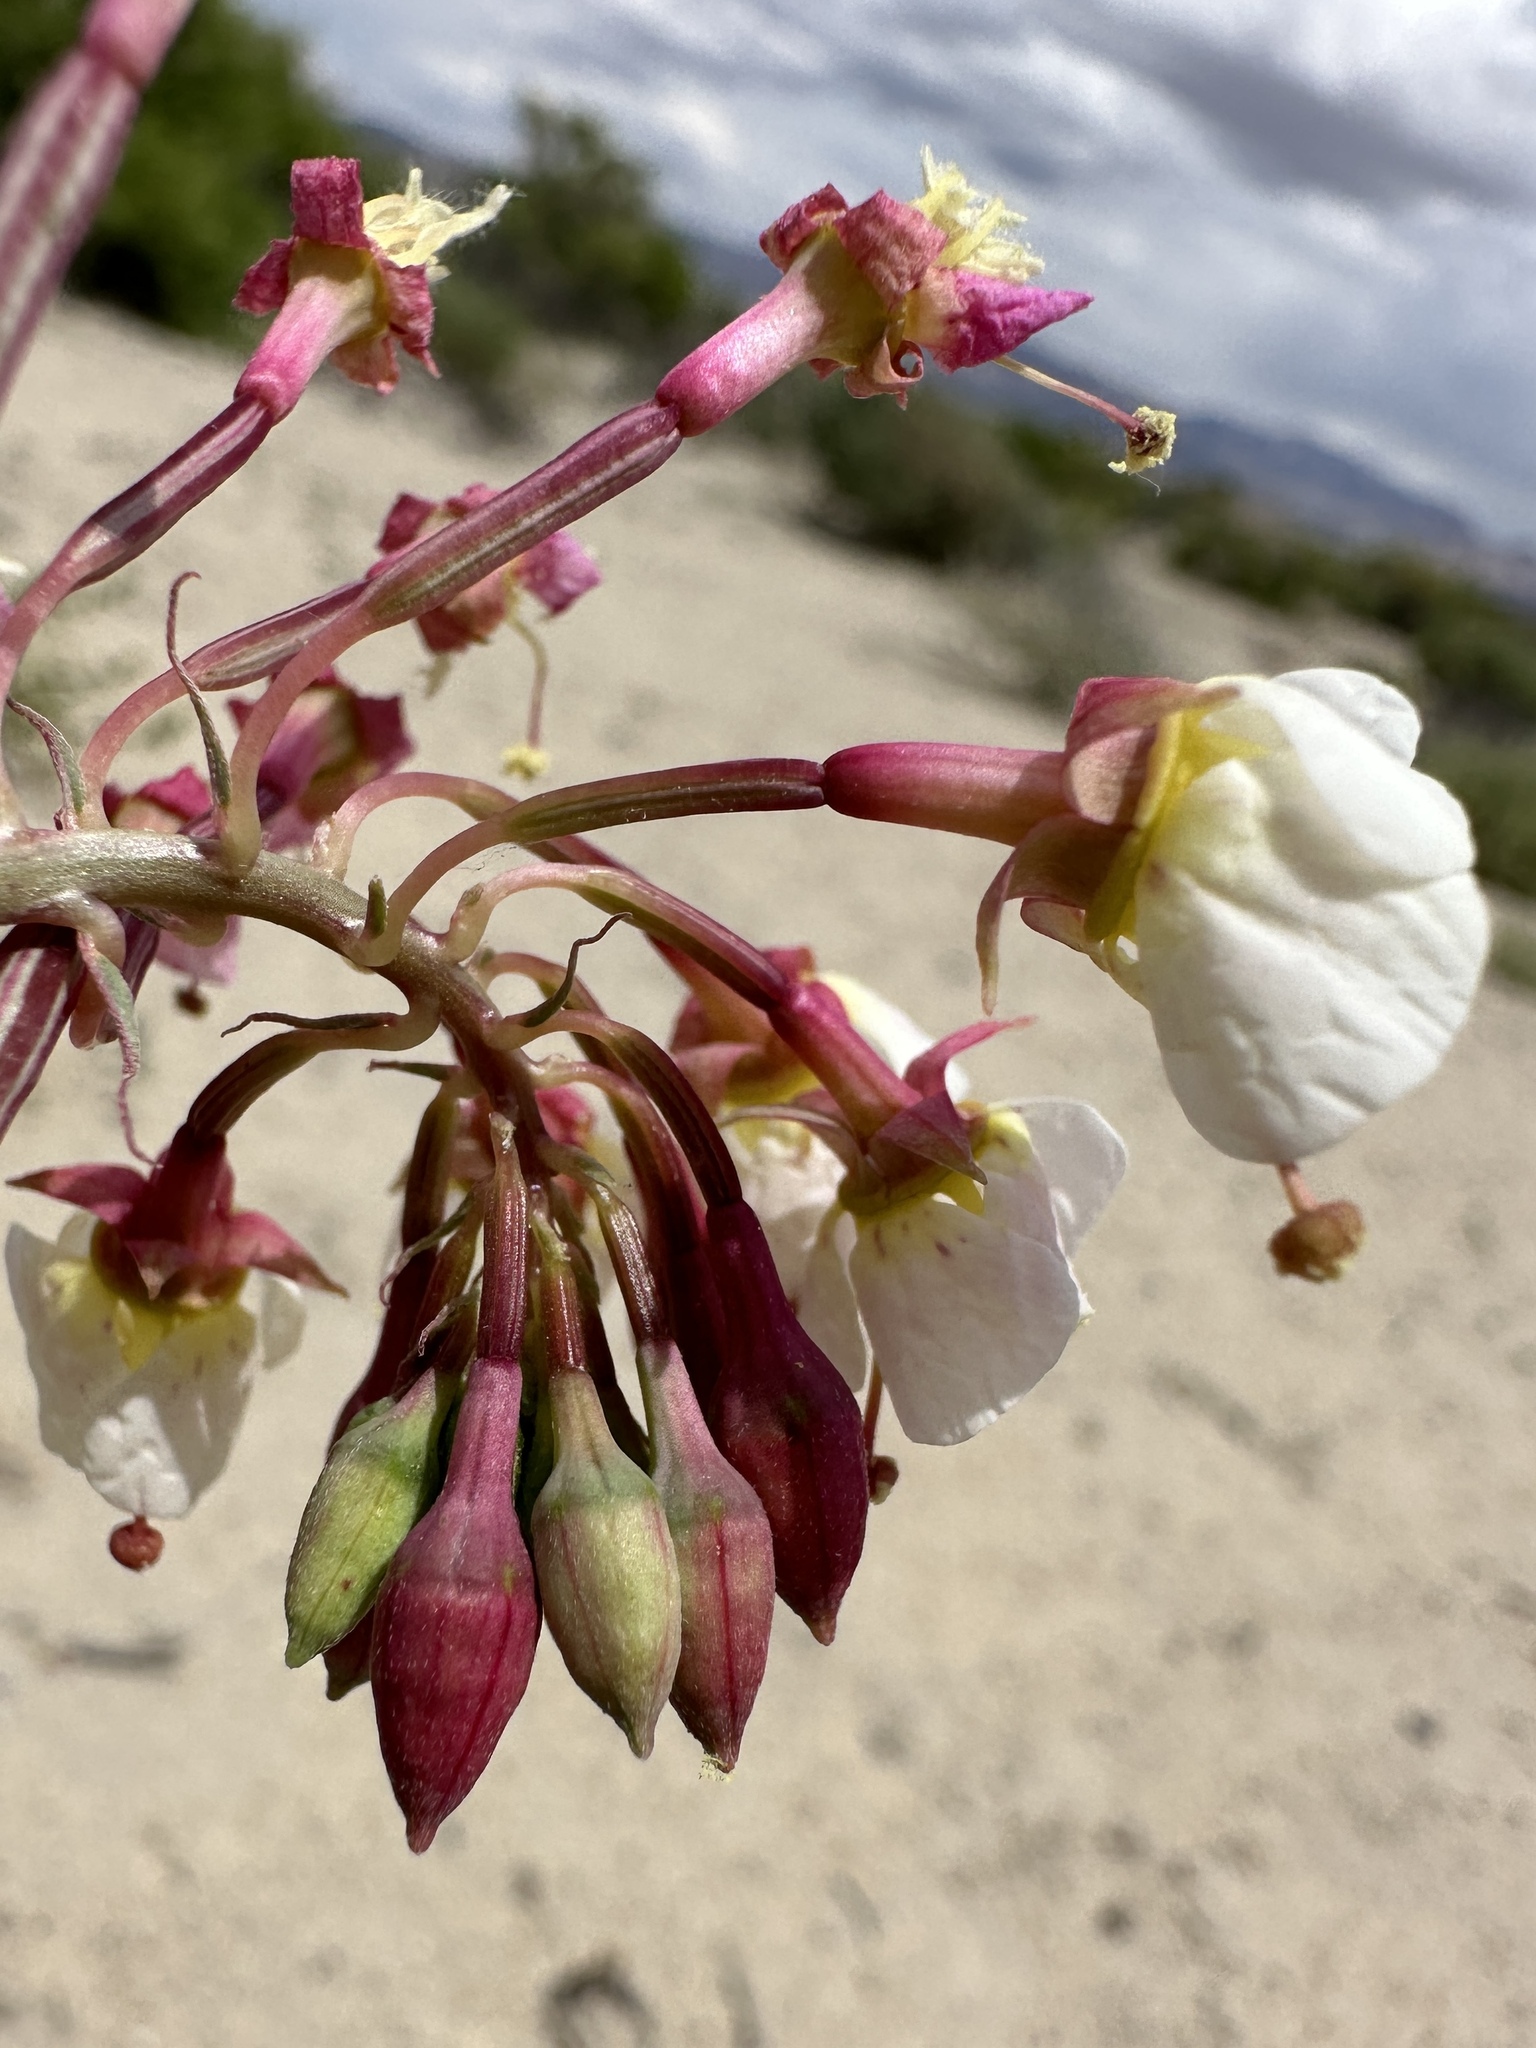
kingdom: Plantae
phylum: Tracheophyta
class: Magnoliopsida
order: Myrtales
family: Onagraceae
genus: Chylismia
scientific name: Chylismia claviformis
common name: Browneyes
